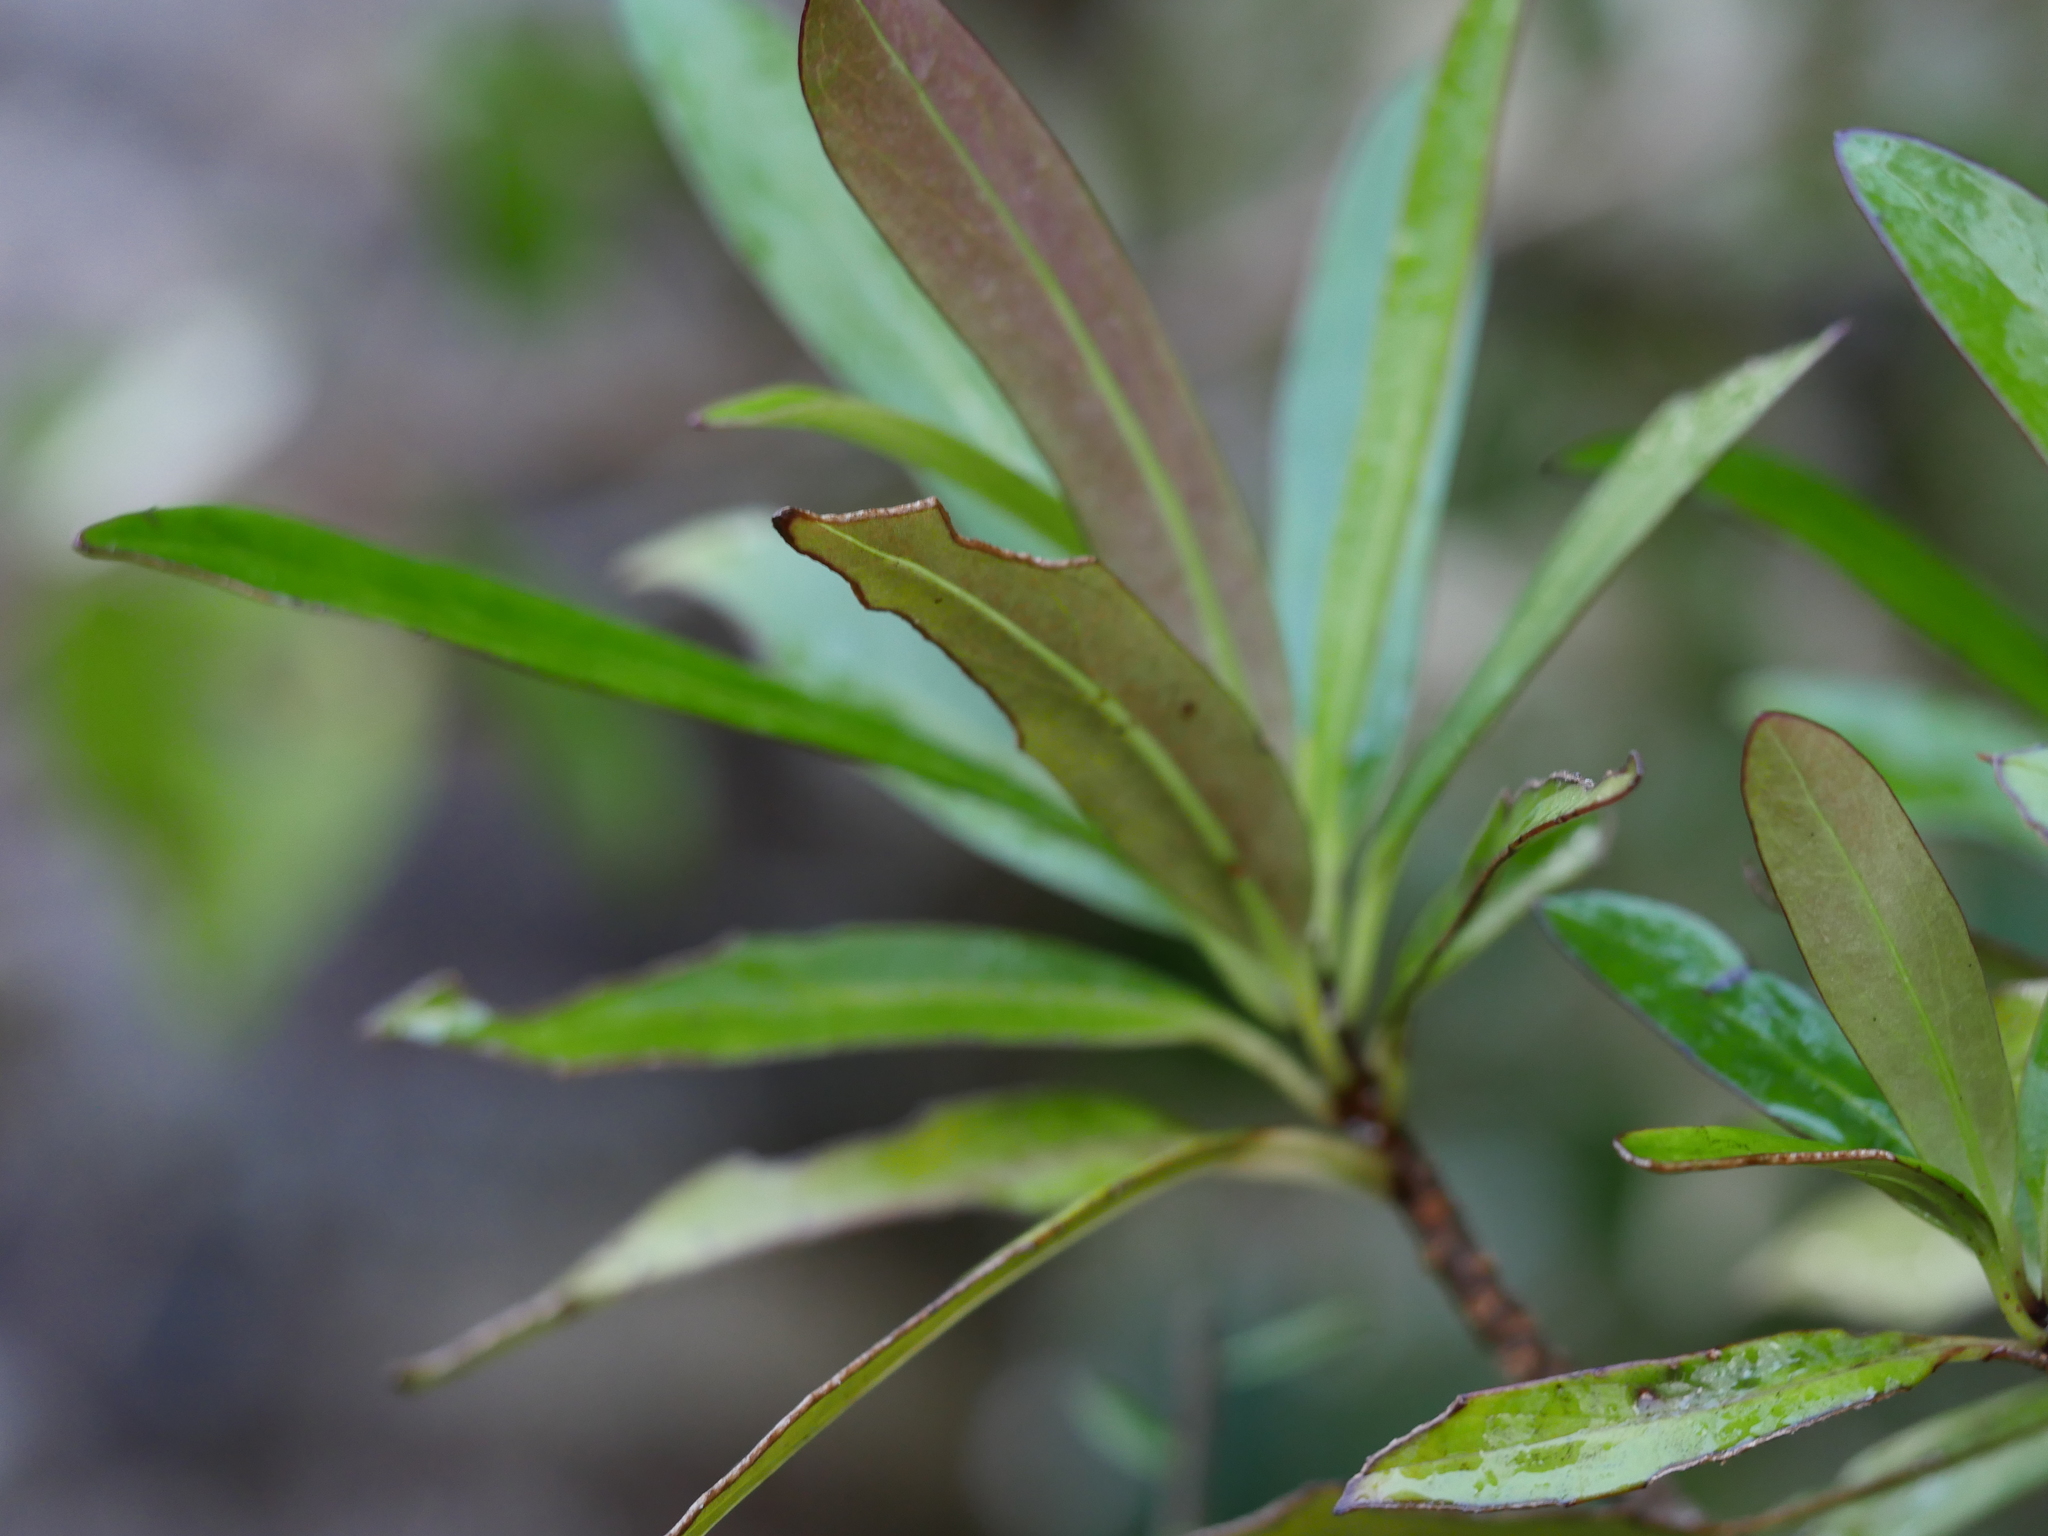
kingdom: Plantae
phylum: Tracheophyta
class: Magnoliopsida
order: Asterales
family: Asteraceae
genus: Brachyglottis
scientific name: Brachyglottis kirkii
